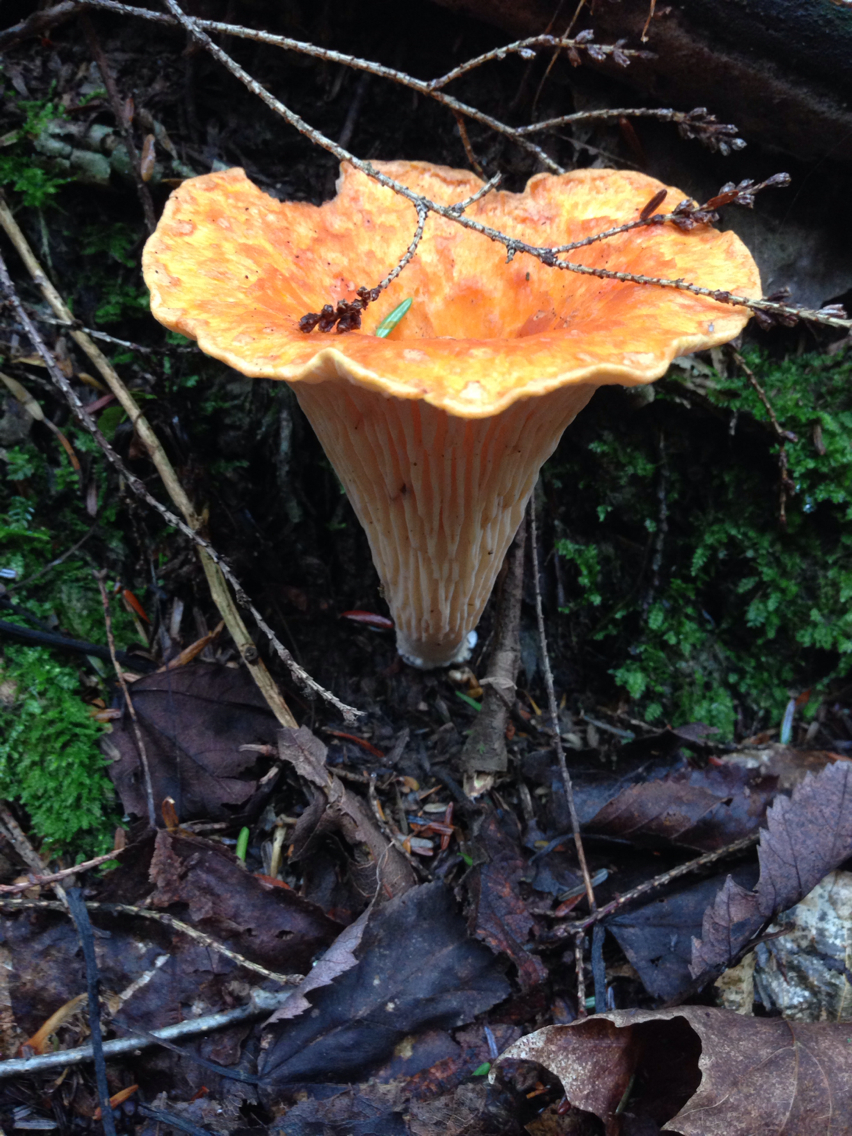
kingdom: Fungi
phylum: Basidiomycota
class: Agaricomycetes
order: Gomphales
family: Gomphaceae
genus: Turbinellus
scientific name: Turbinellus floccosus
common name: Scaly chanterelle
